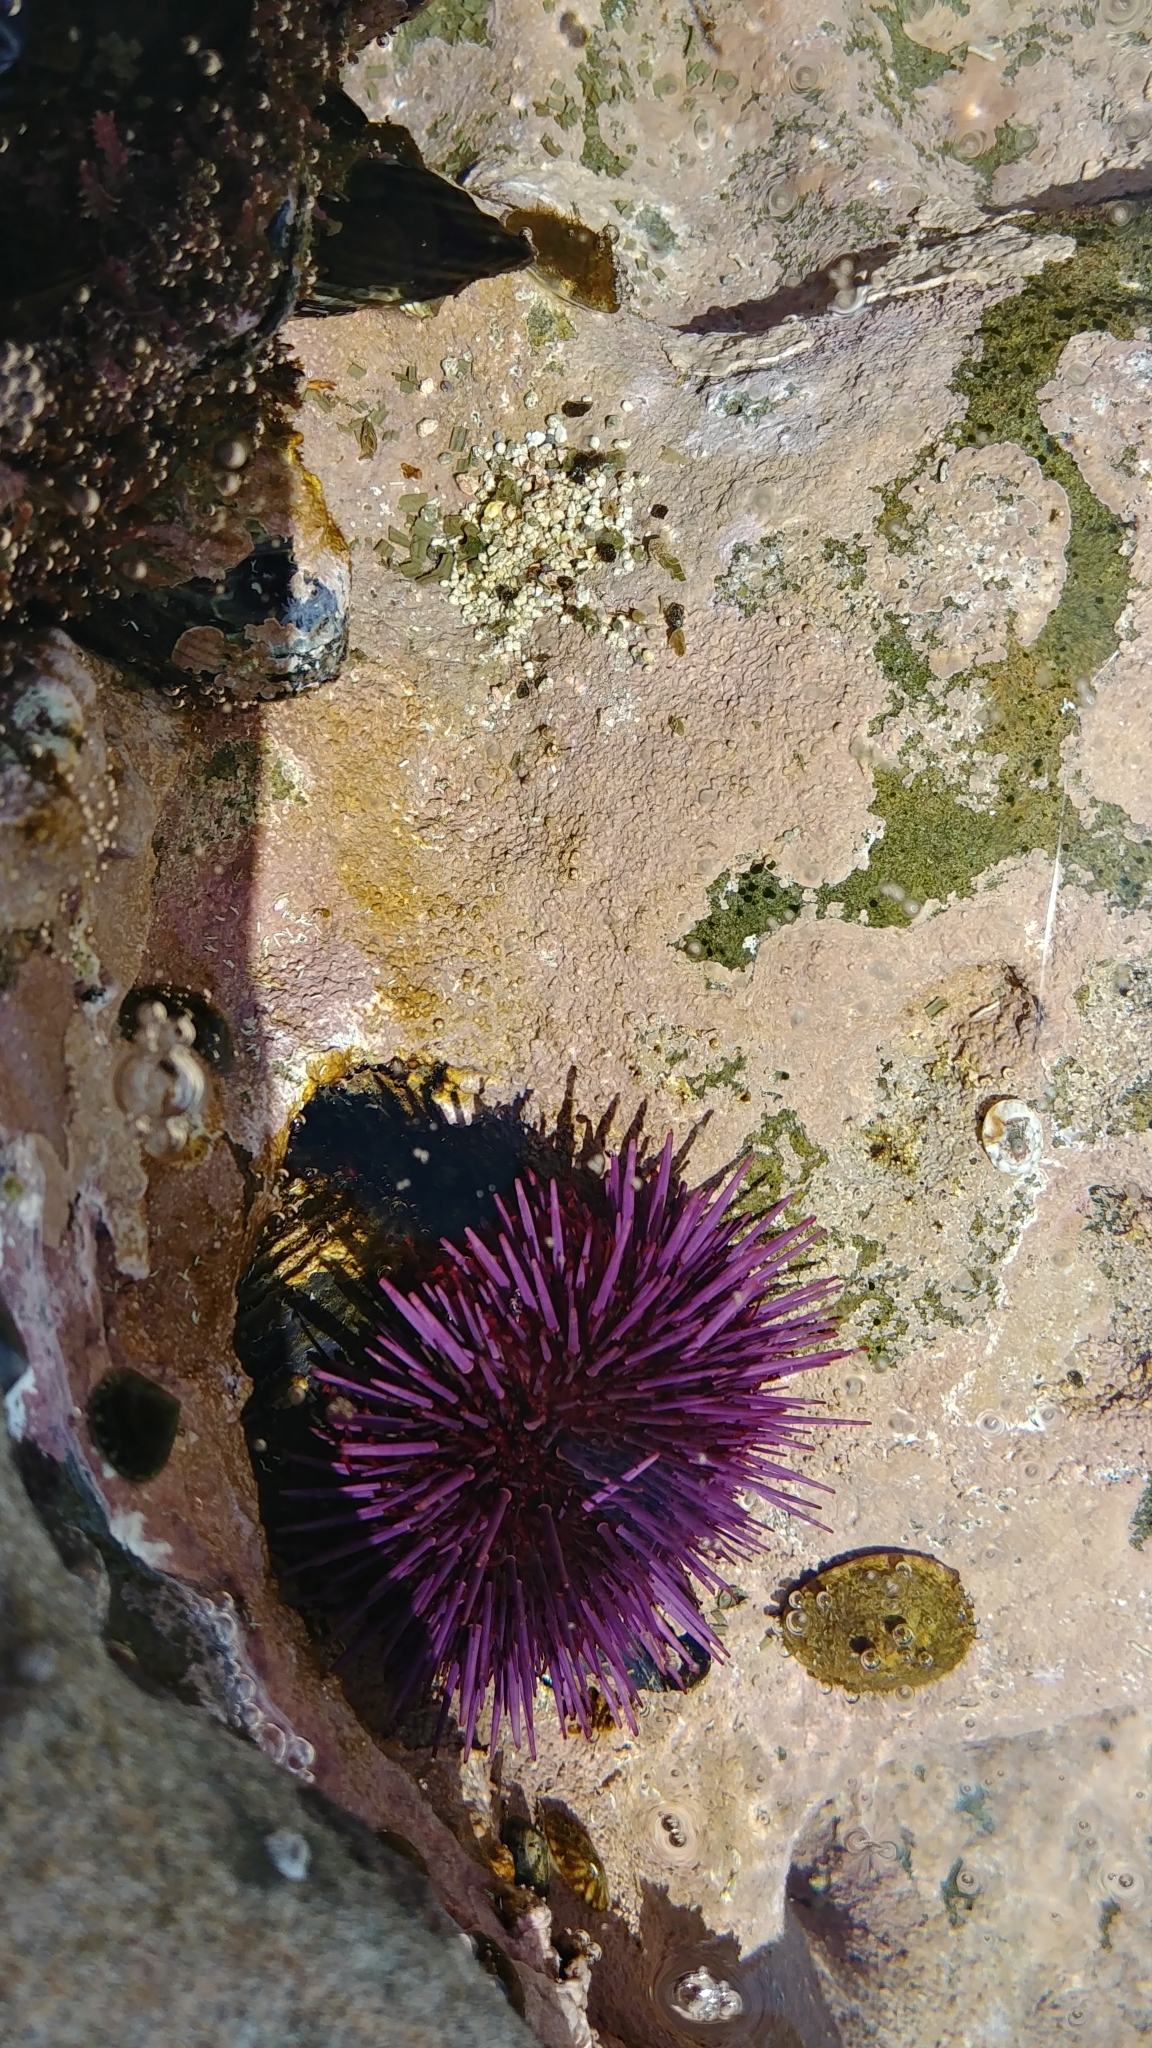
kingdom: Animalia
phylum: Echinodermata
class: Echinoidea
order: Camarodonta
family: Strongylocentrotidae
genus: Strongylocentrotus
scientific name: Strongylocentrotus purpuratus
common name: Purple sea urchin
